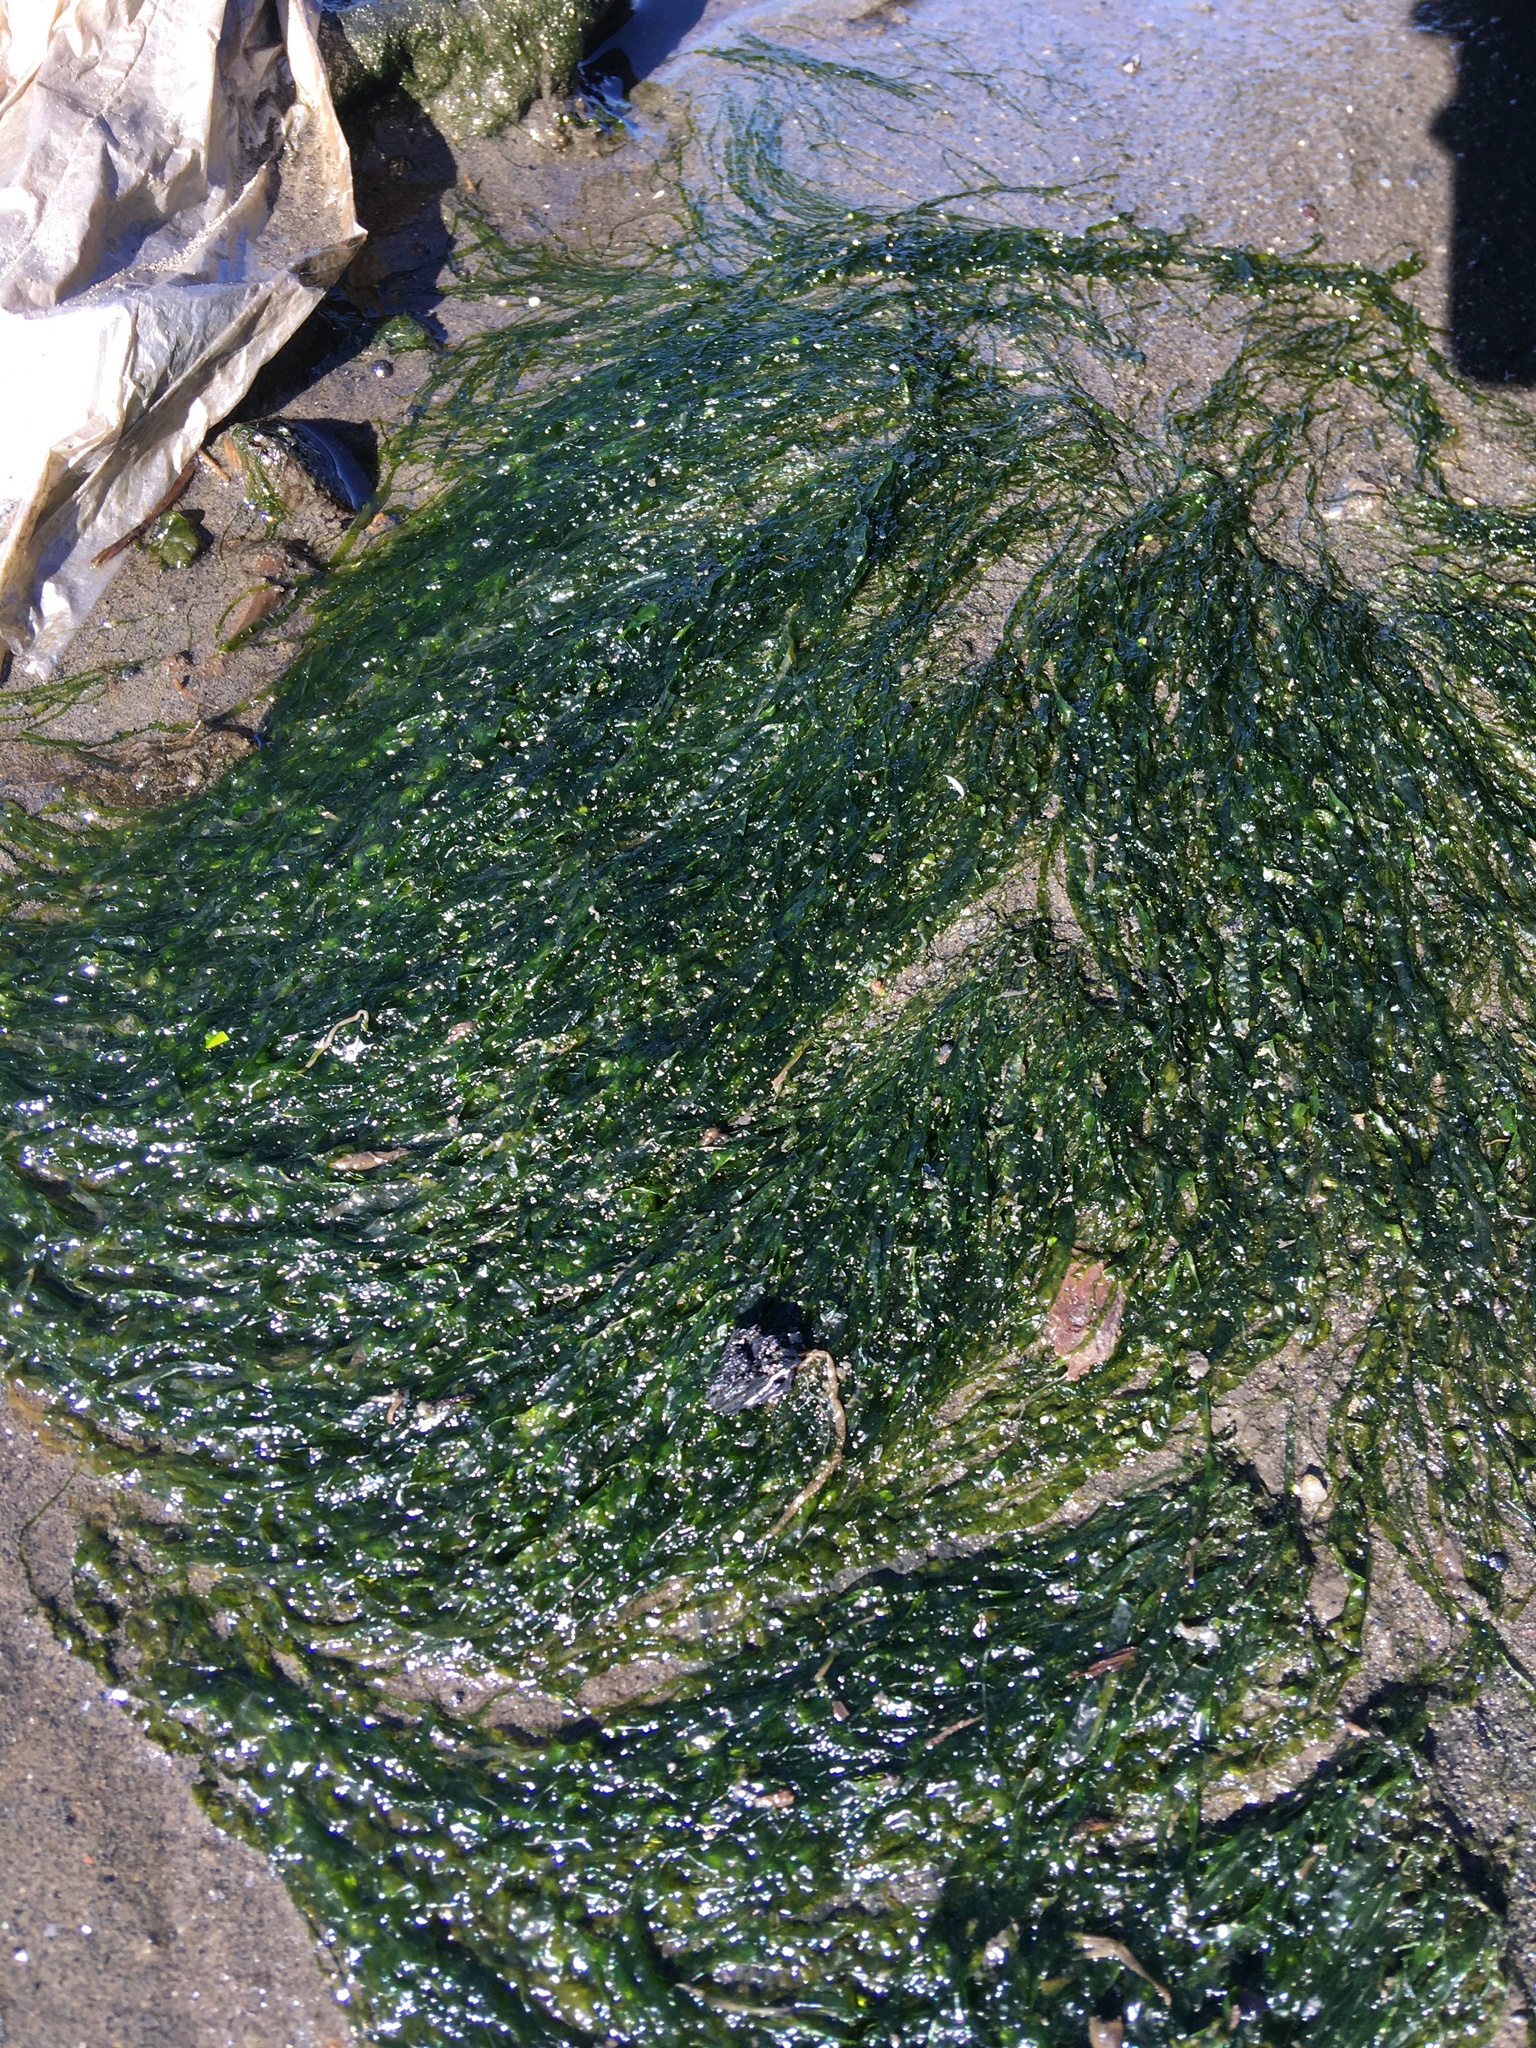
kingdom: Plantae
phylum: Chlorophyta
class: Ulvophyceae
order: Ulotrichales
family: Ulotrichaceae
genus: Acrosiphonia
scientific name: Acrosiphonia
